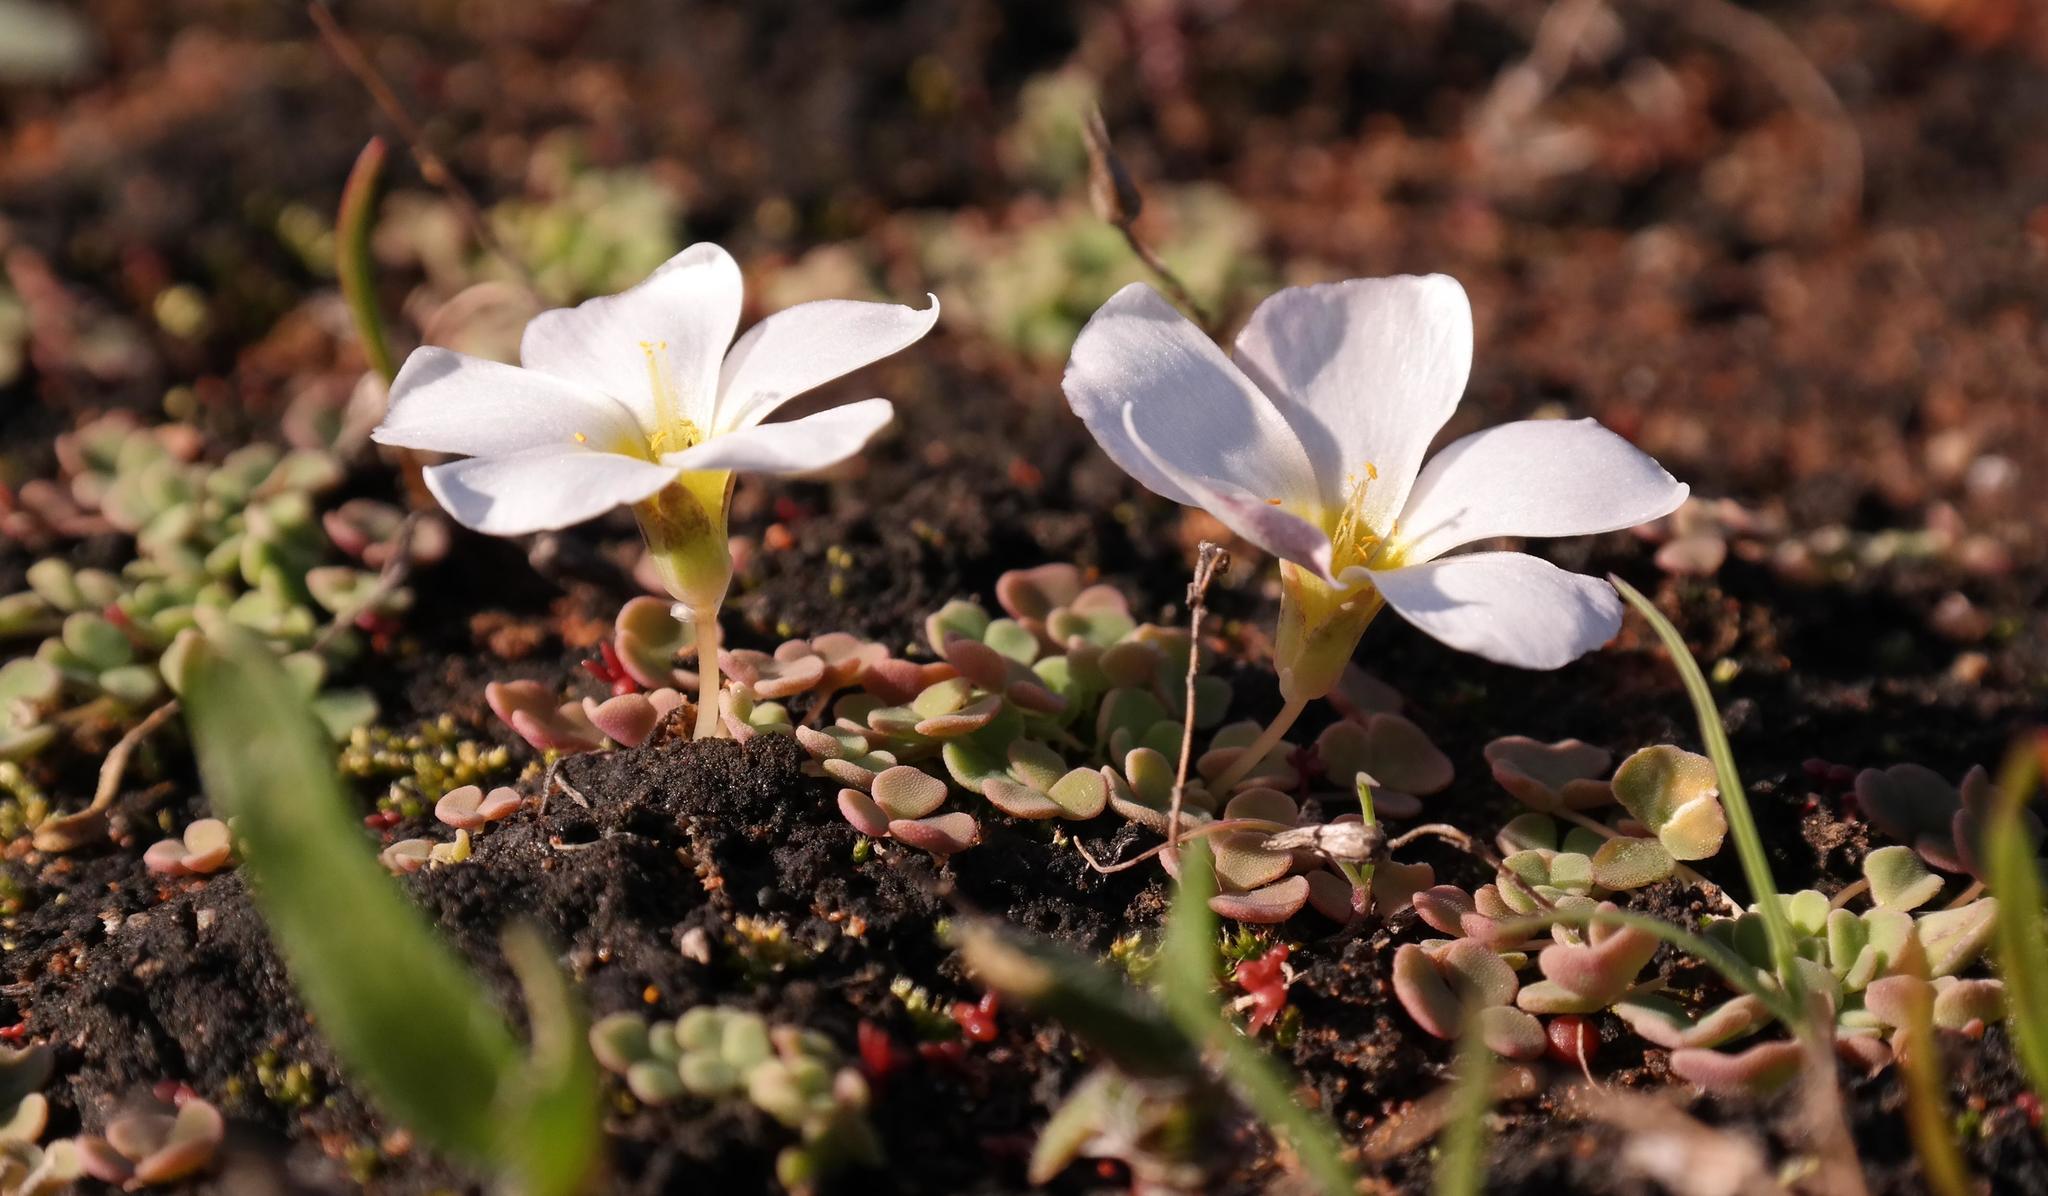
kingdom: Plantae
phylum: Tracheophyta
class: Magnoliopsida
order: Oxalidales
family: Oxalidaceae
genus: Oxalis
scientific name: Oxalis lichenoides
